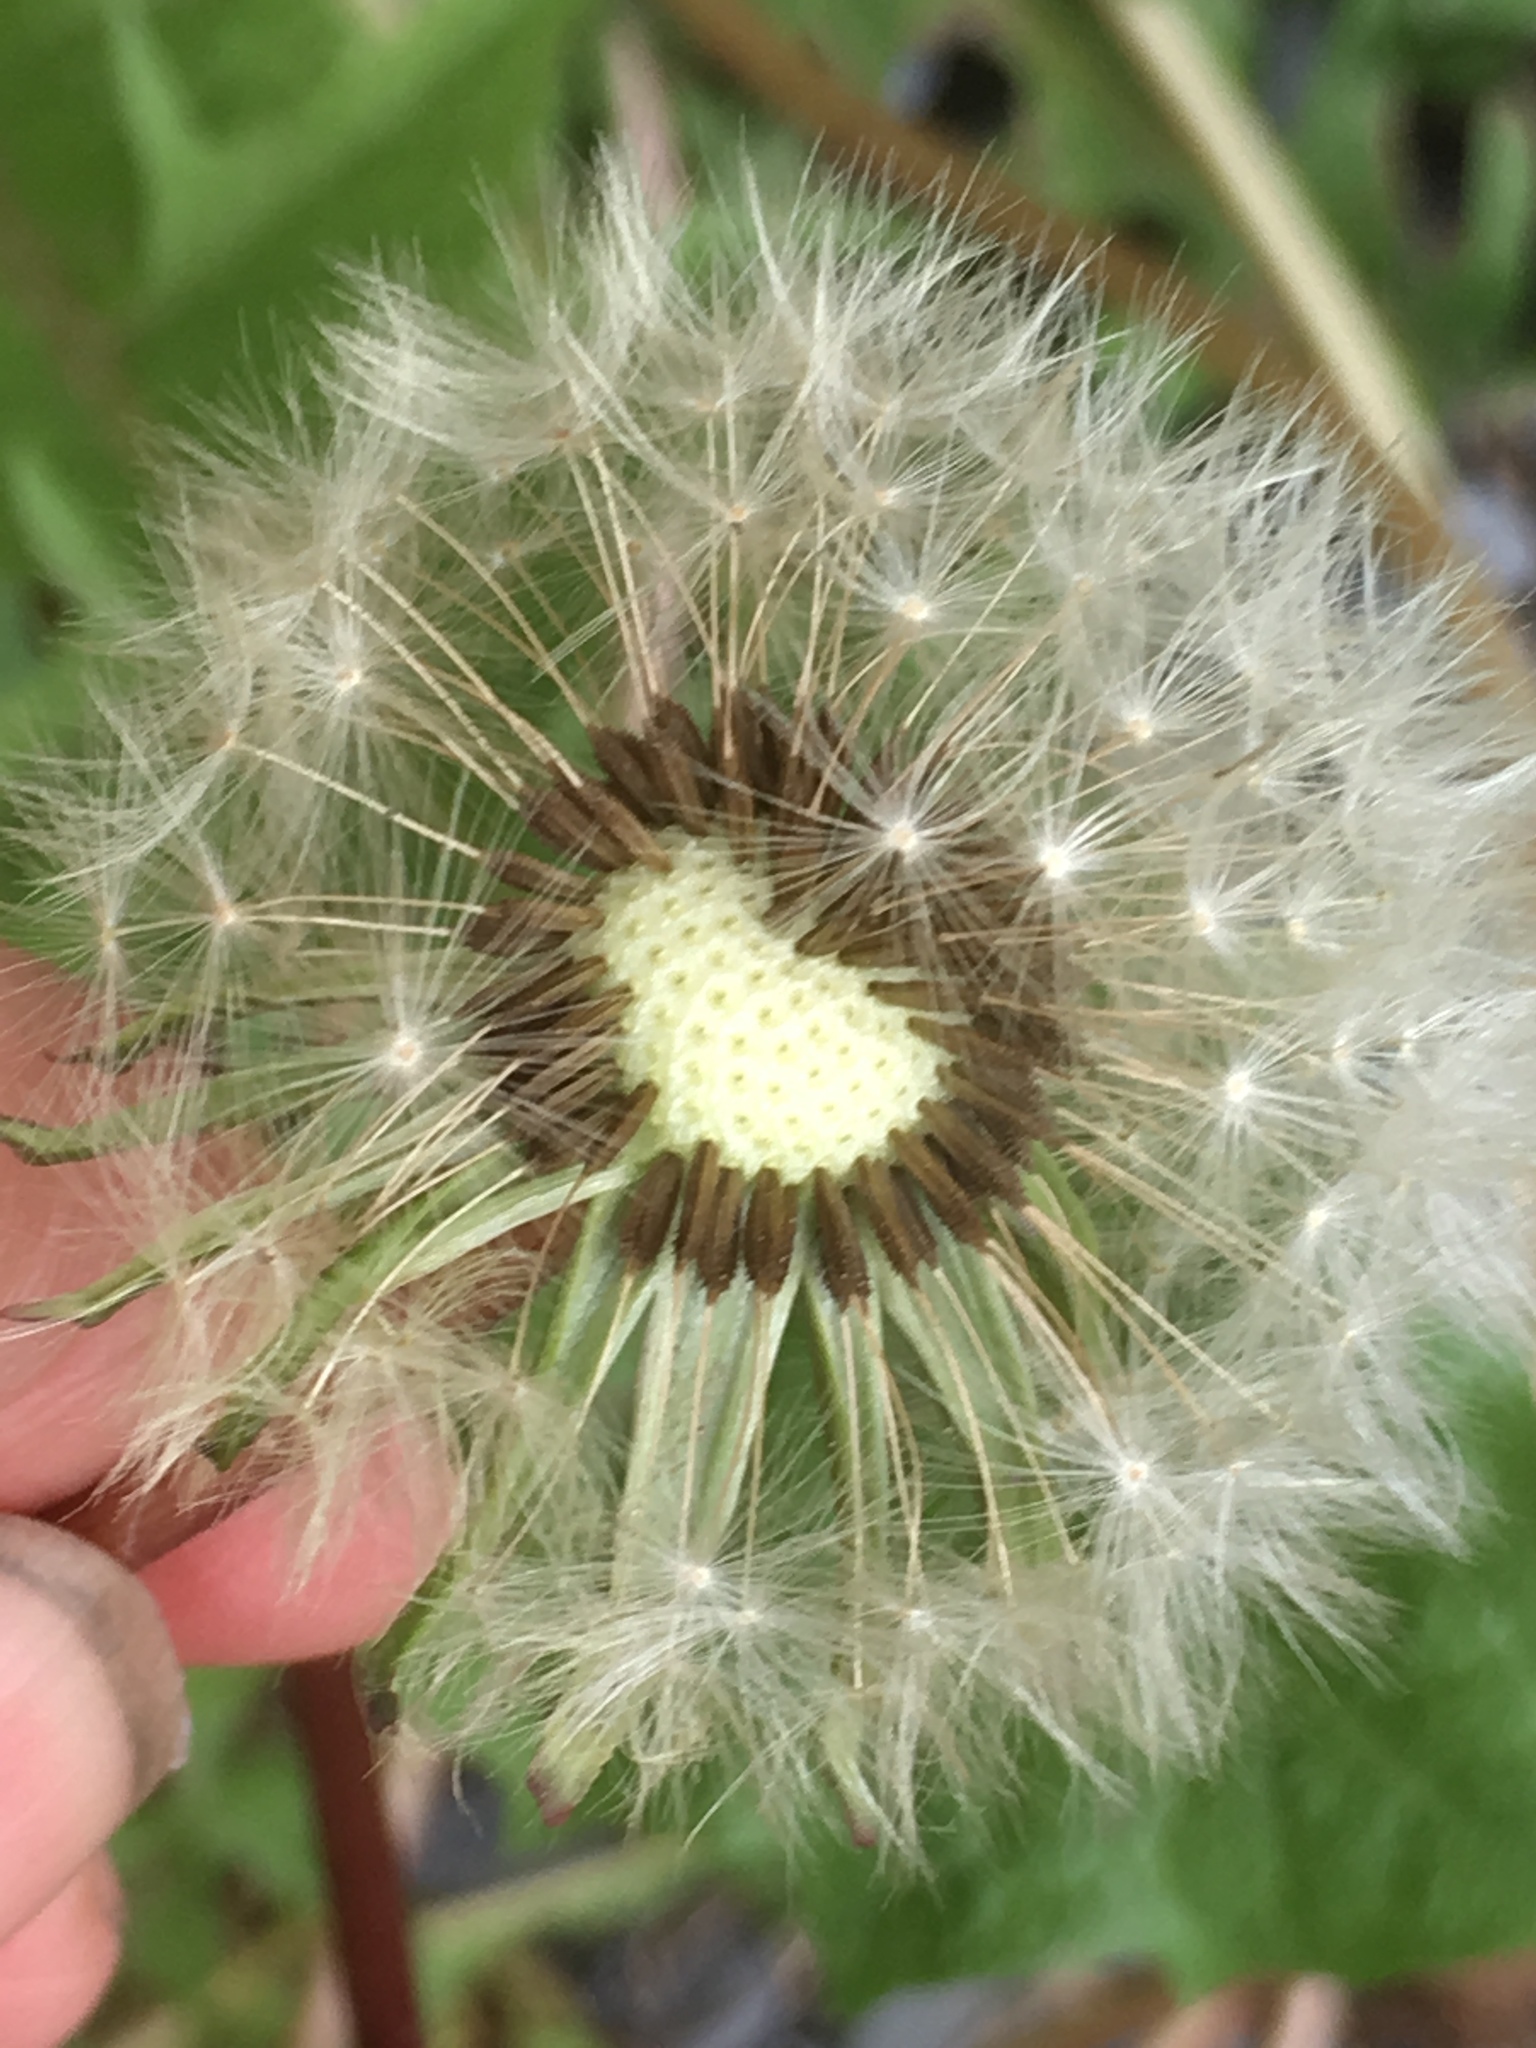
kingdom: Plantae
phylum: Tracheophyta
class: Magnoliopsida
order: Asterales
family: Asteraceae
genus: Taraxacum
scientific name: Taraxacum officinale
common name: Common dandelion
